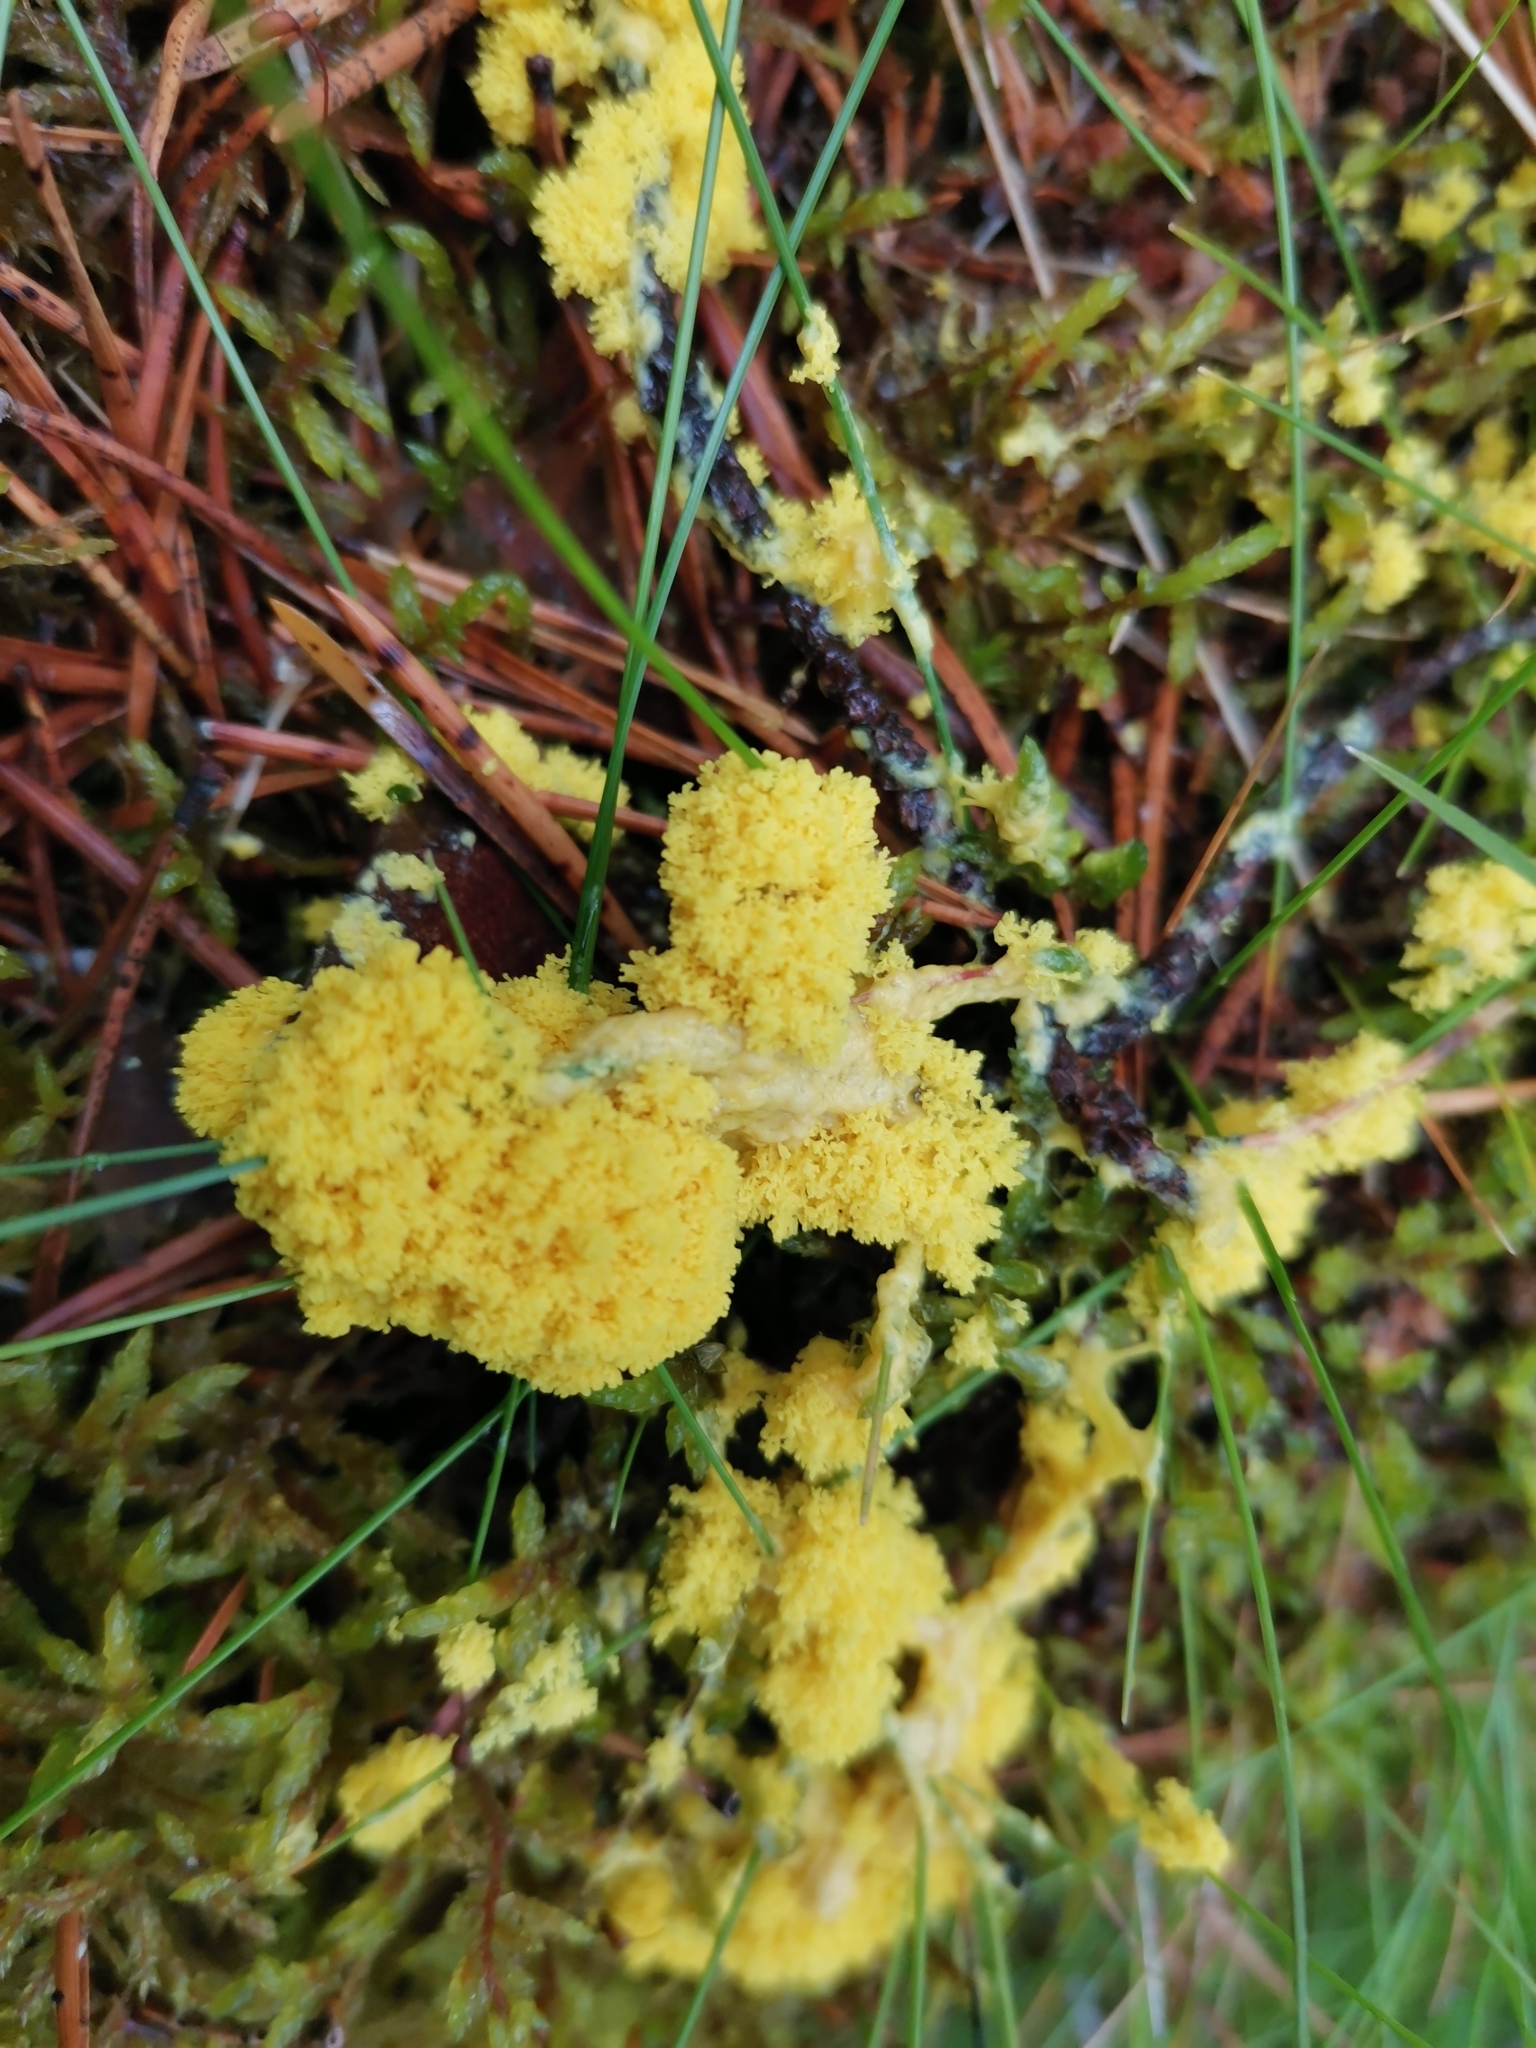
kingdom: Protozoa
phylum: Mycetozoa
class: Myxomycetes
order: Physarales
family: Physaraceae
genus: Fuligo
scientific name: Fuligo septica
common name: Dog vomit slime mold
